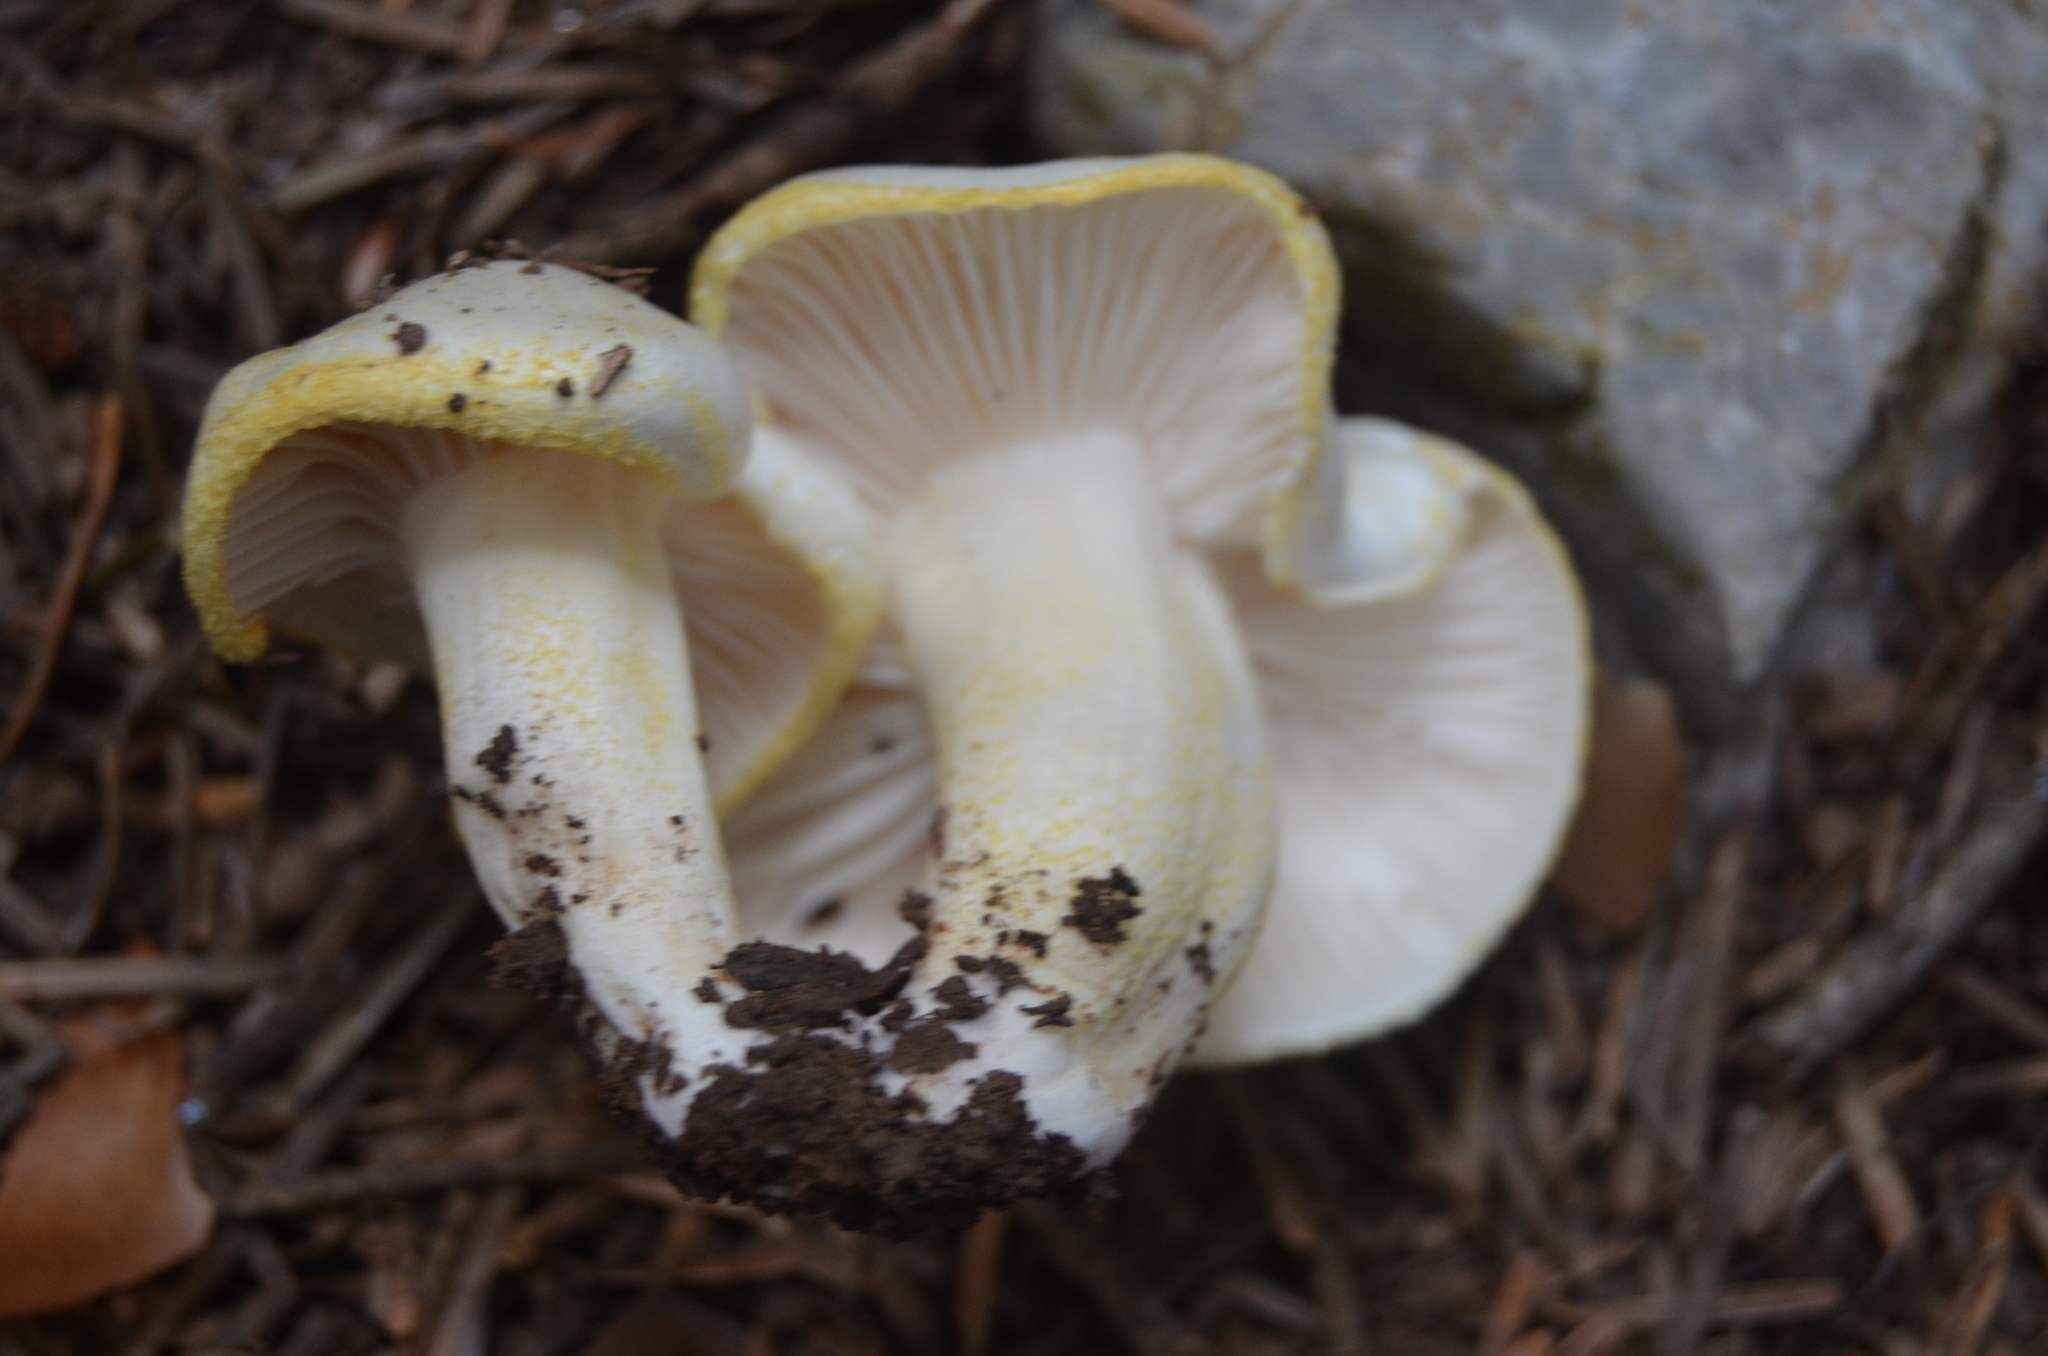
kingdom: Fungi
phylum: Basidiomycota
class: Agaricomycetes
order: Agaricales
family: Hygrophoraceae
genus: Hygrophorus
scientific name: Hygrophorus chrysodon
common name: Gold flecked woodwax
